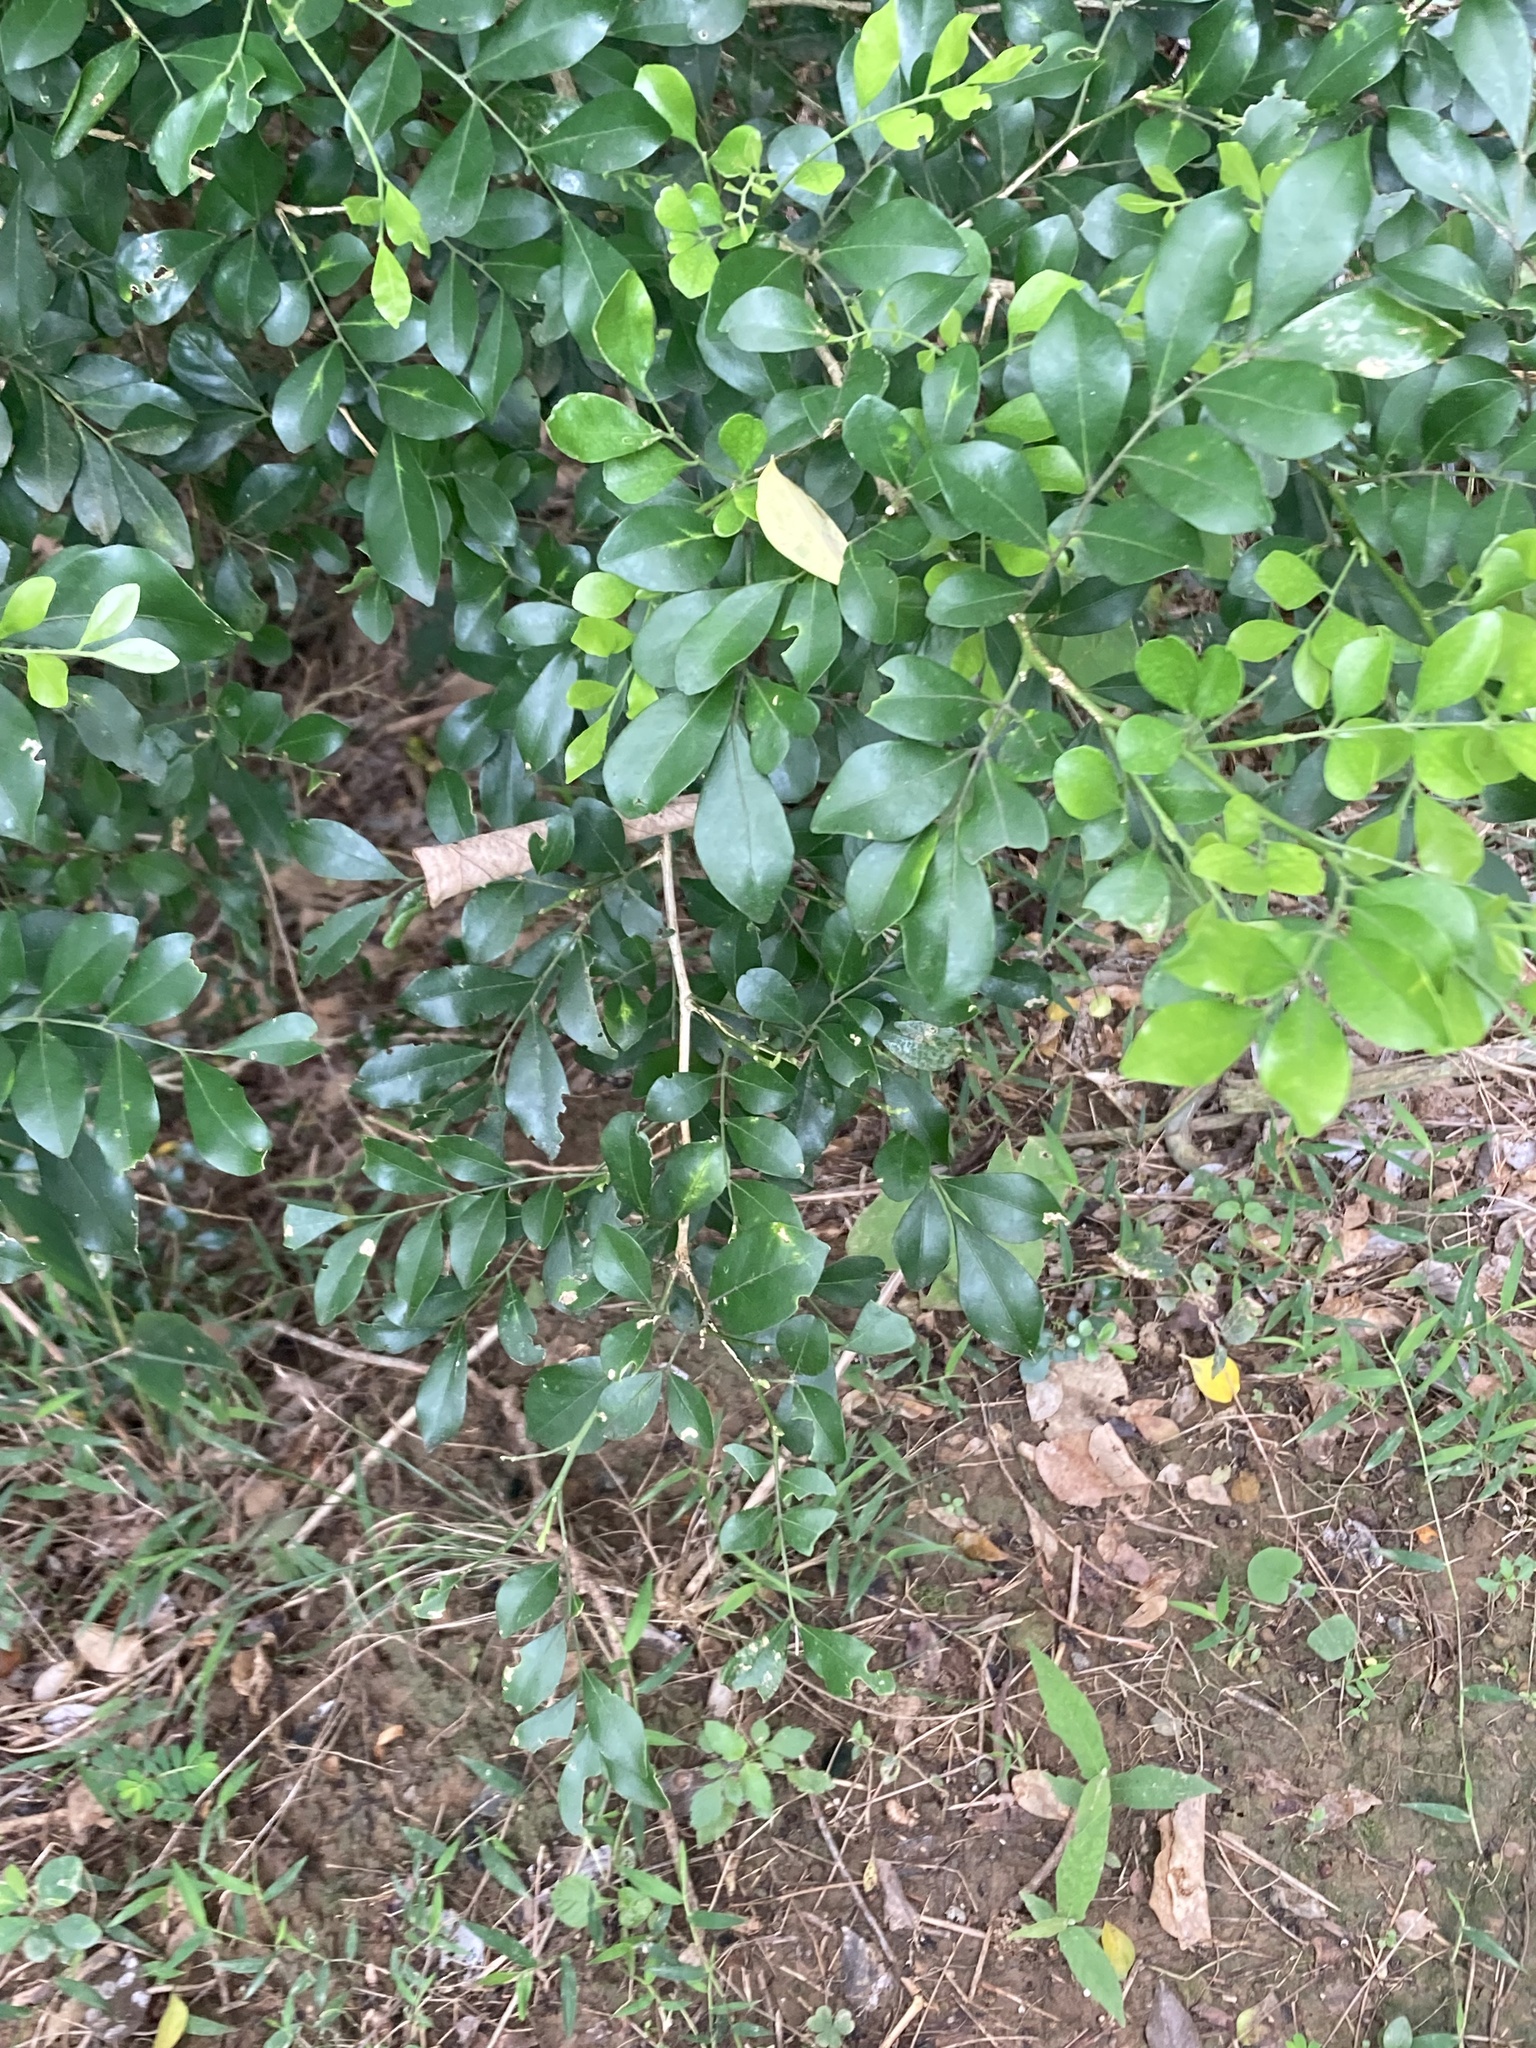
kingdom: Plantae
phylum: Tracheophyta
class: Magnoliopsida
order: Sapindales
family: Rutaceae
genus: Murraya
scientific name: Murraya paniculata
